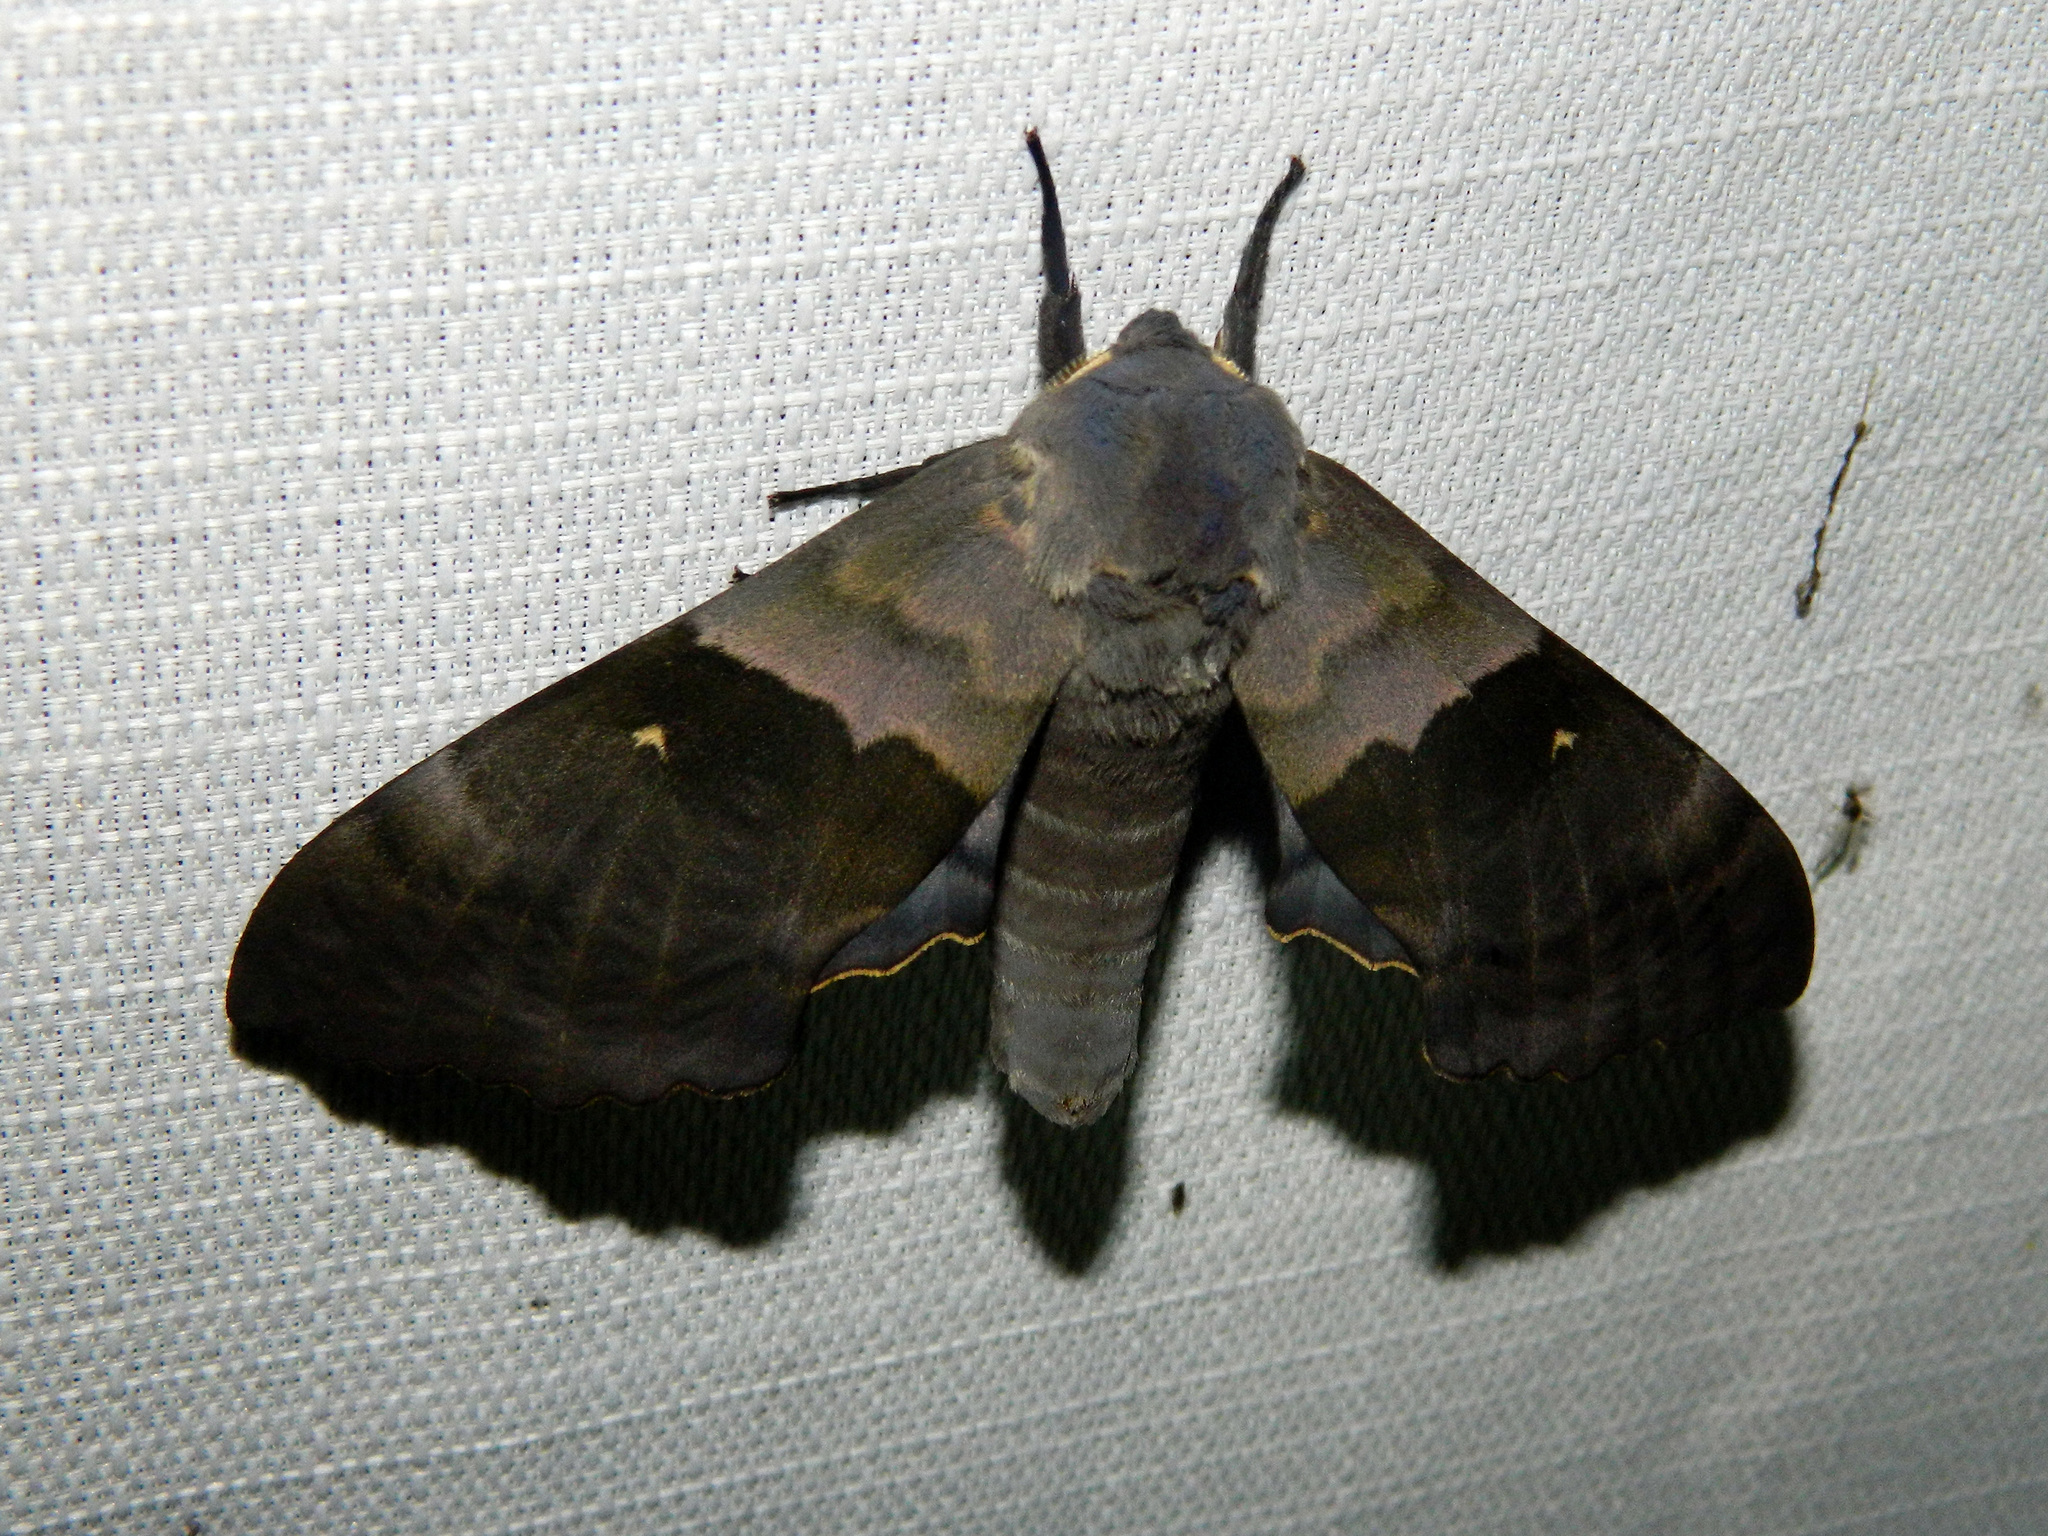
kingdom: Animalia
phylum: Arthropoda
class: Insecta
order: Lepidoptera
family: Sphingidae
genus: Pachysphinx
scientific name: Pachysphinx modesta
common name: Big poplar sphinx
